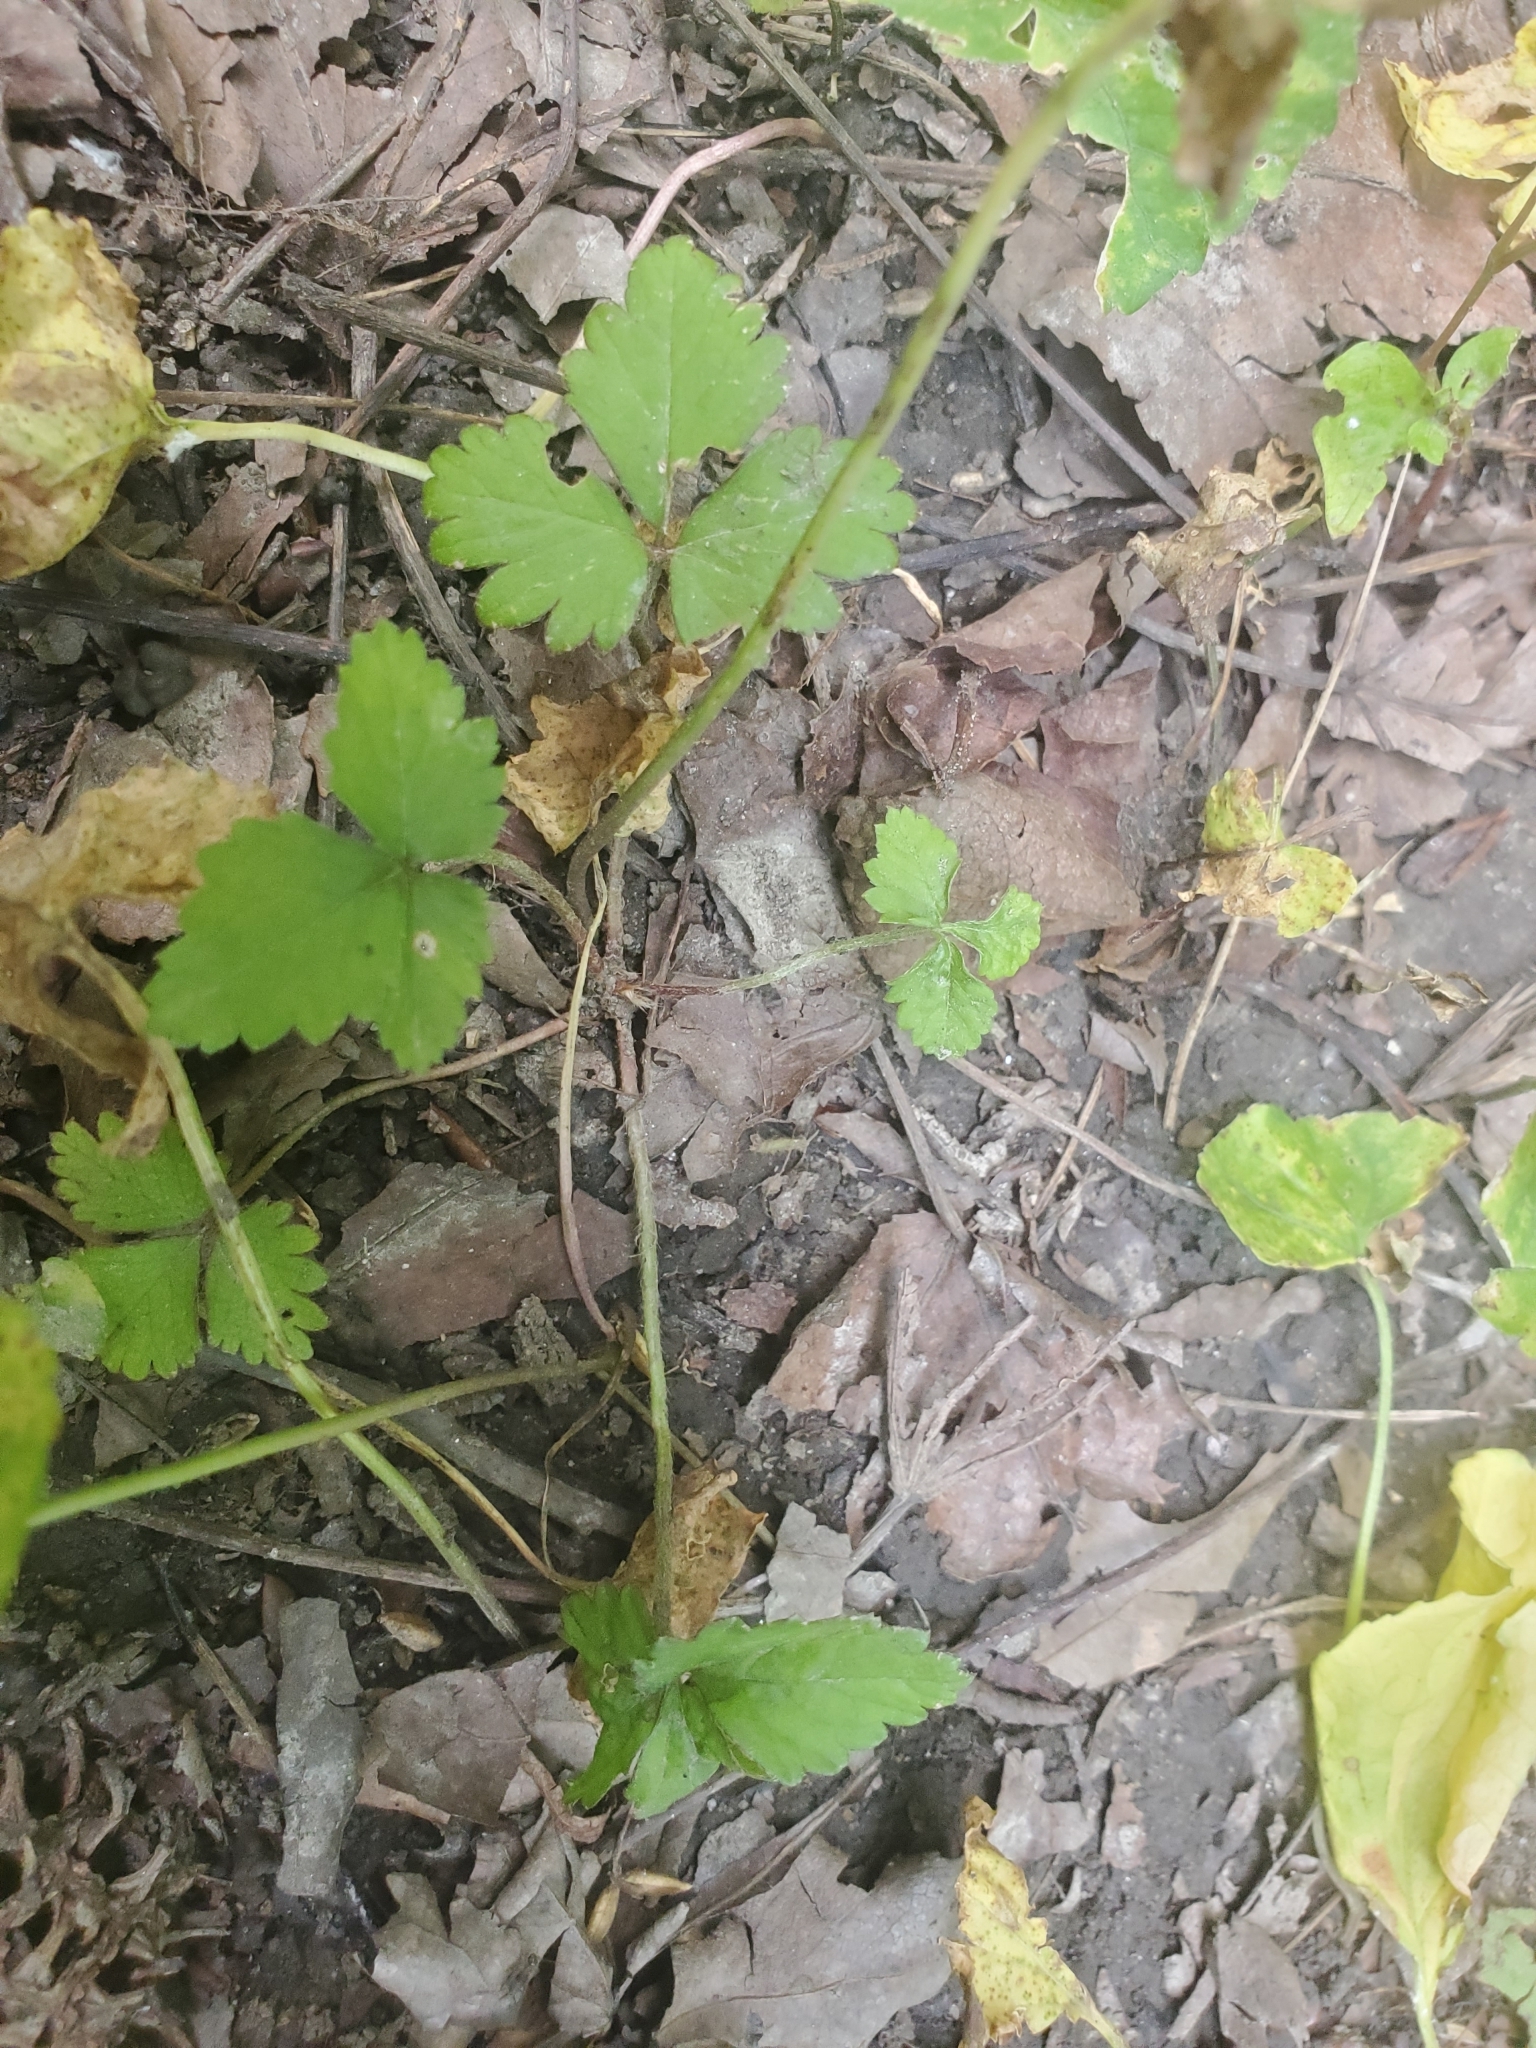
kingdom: Plantae
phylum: Tracheophyta
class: Magnoliopsida
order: Rosales
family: Rosaceae
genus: Potentilla
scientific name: Potentilla indica
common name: Yellow-flowered strawberry
